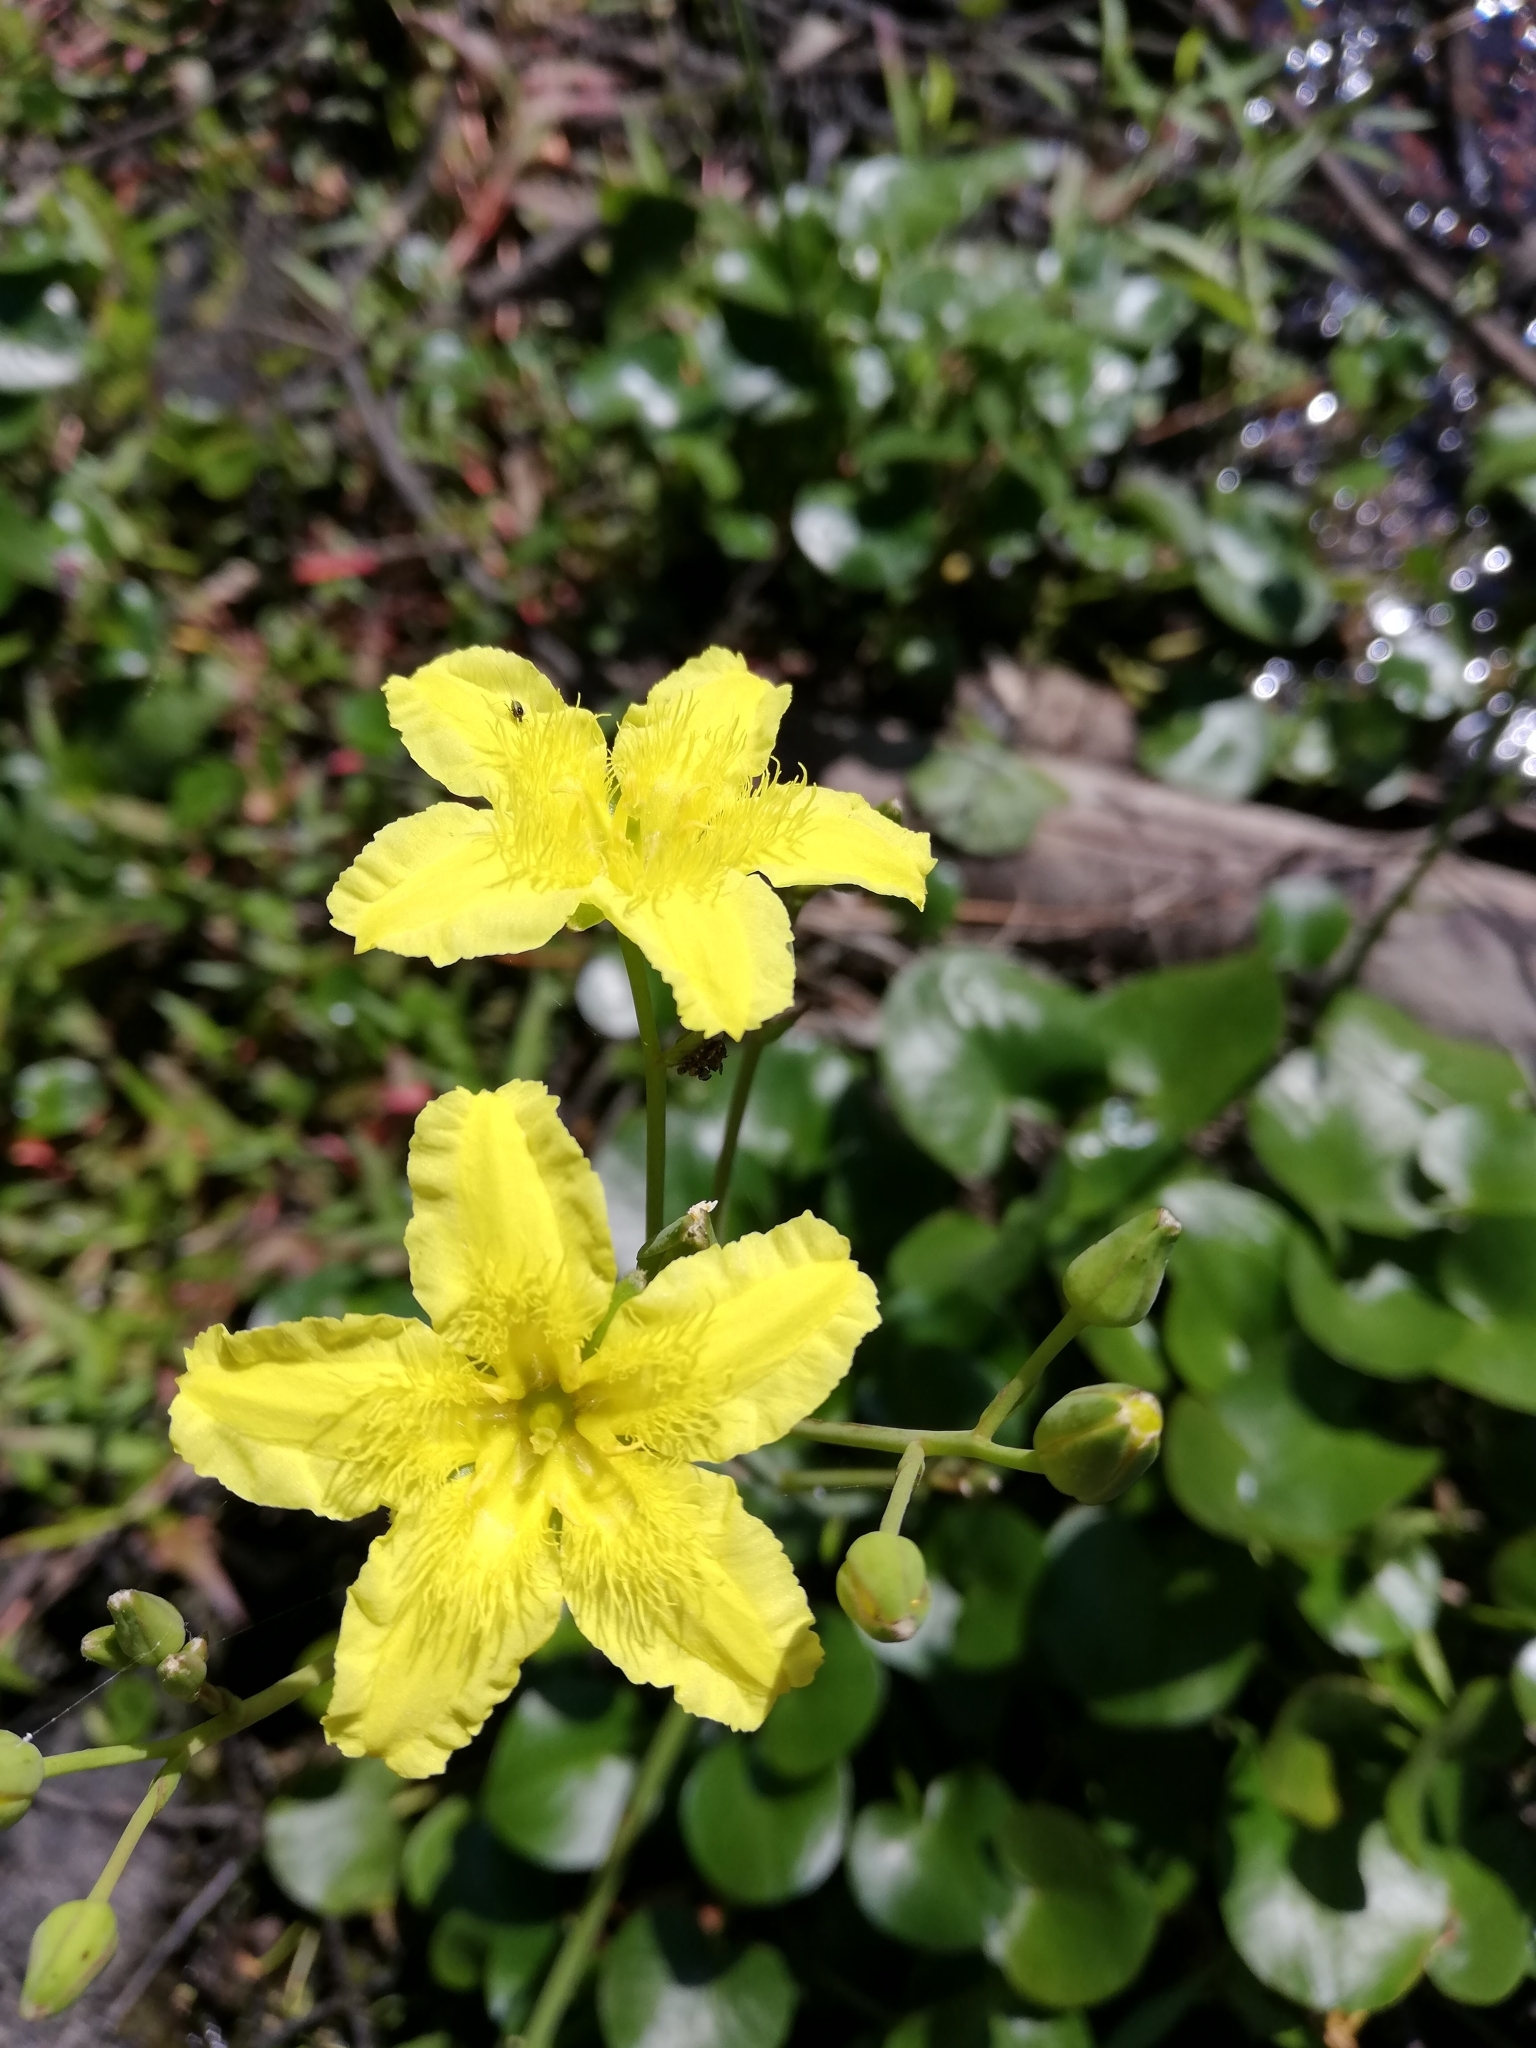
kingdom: Plantae
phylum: Tracheophyta
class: Magnoliopsida
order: Asterales
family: Menyanthaceae
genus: Ornduffia
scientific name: Ornduffia reniformis
